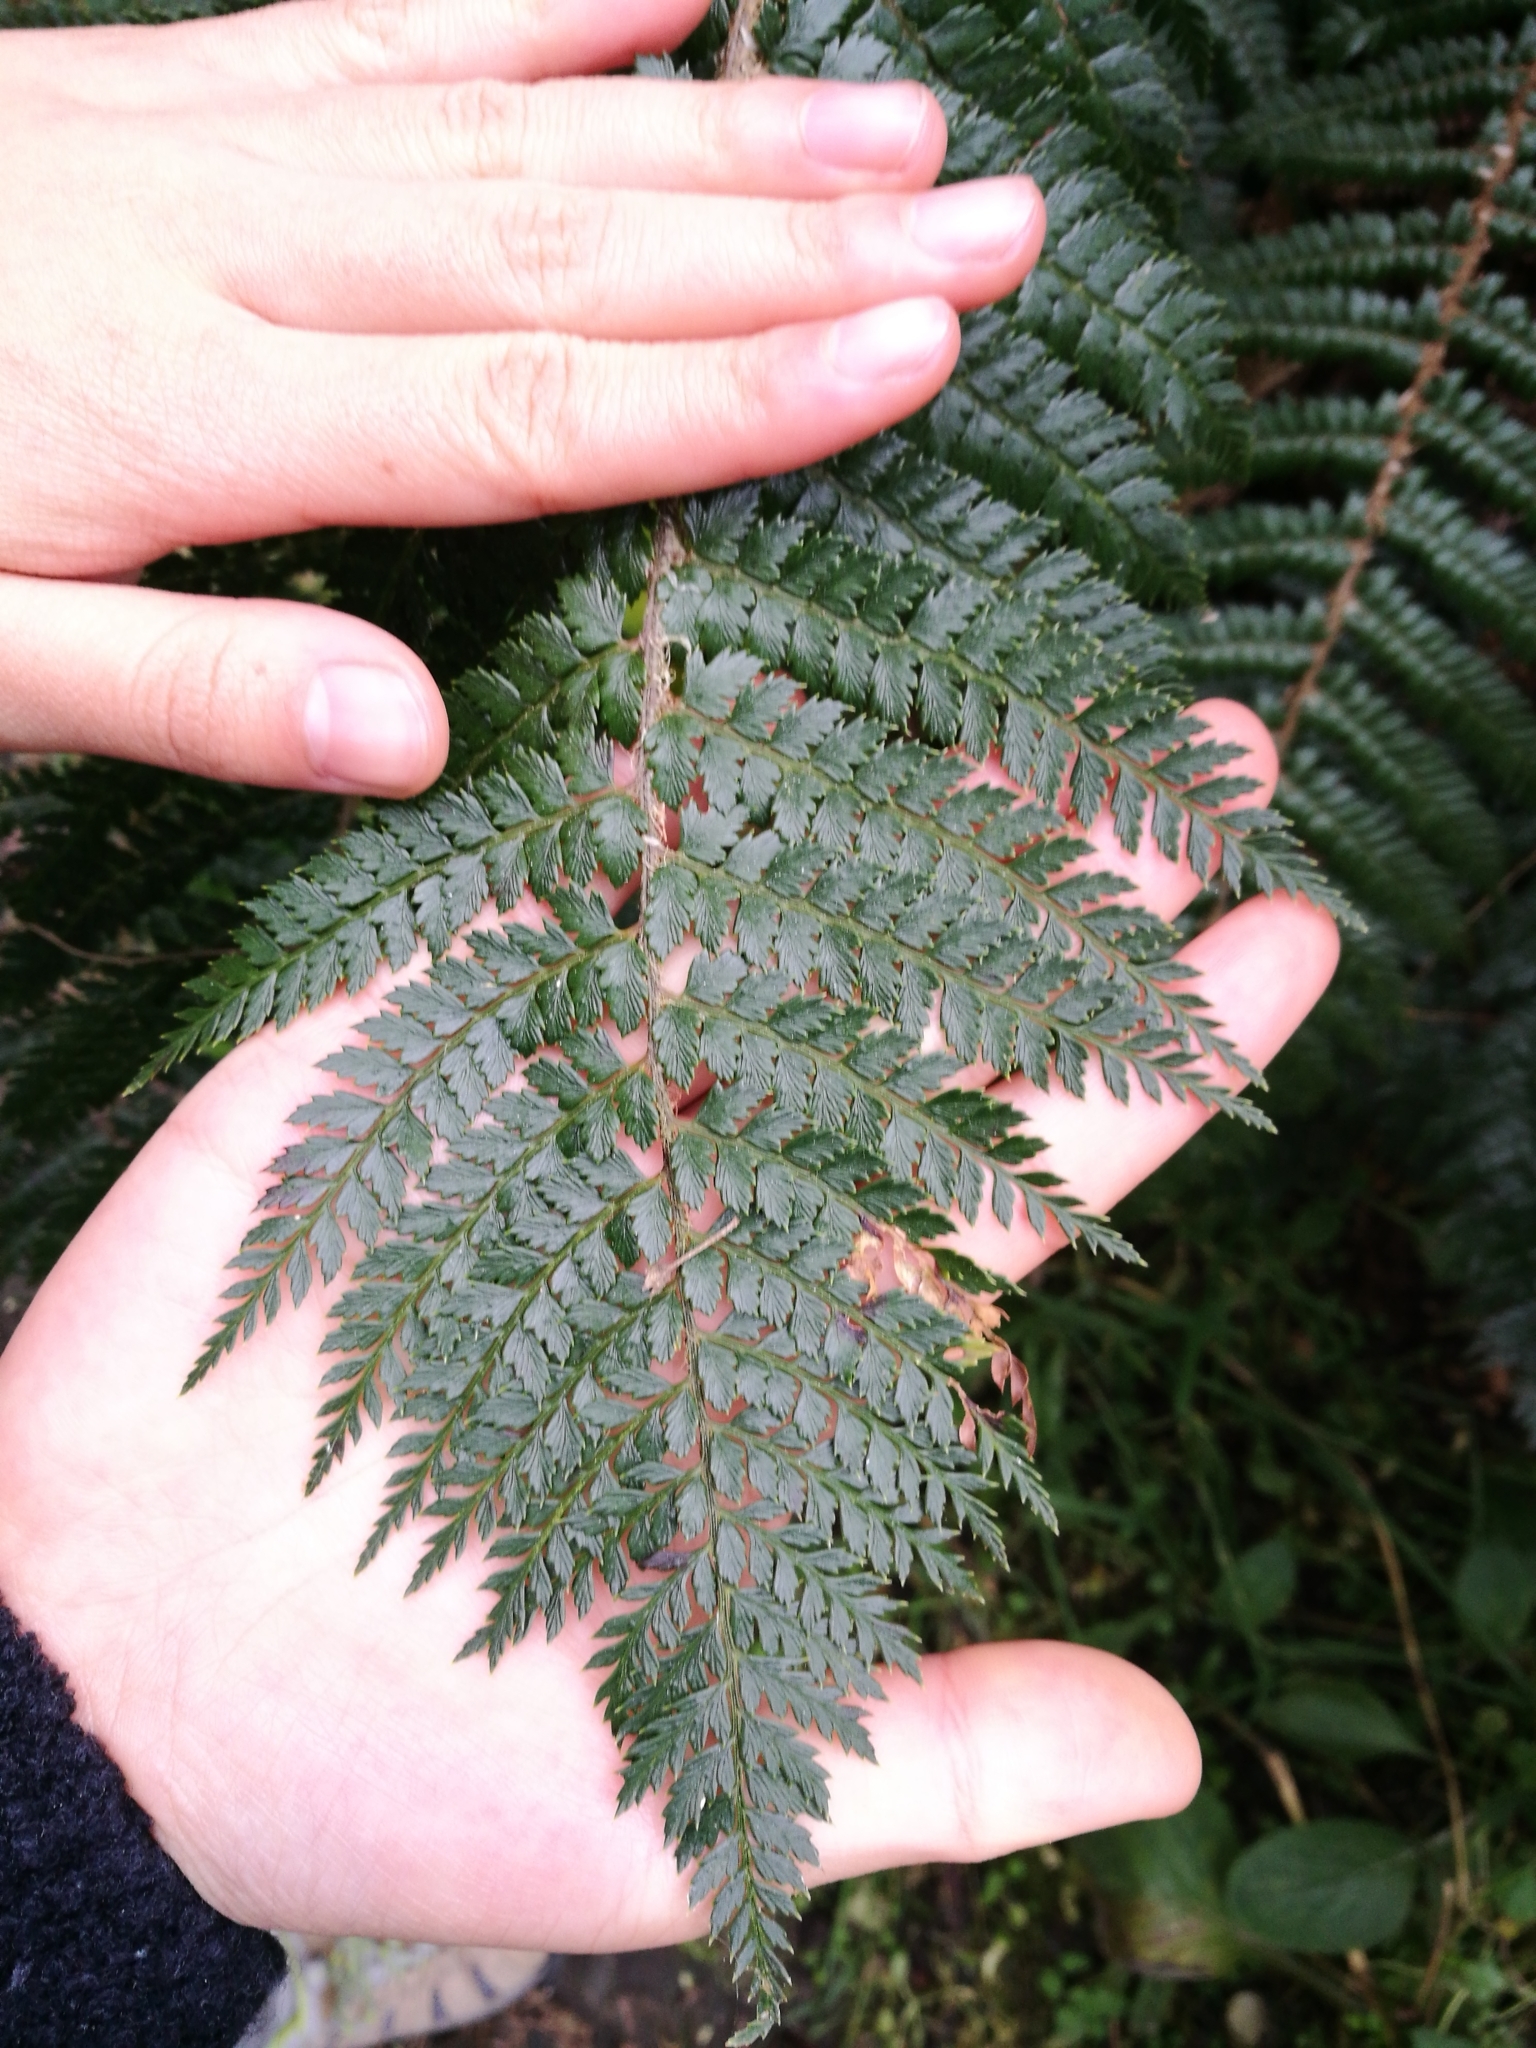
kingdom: Plantae
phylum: Tracheophyta
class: Polypodiopsida
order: Polypodiales
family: Dryopteridaceae
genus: Polystichum
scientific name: Polystichum vestitum
